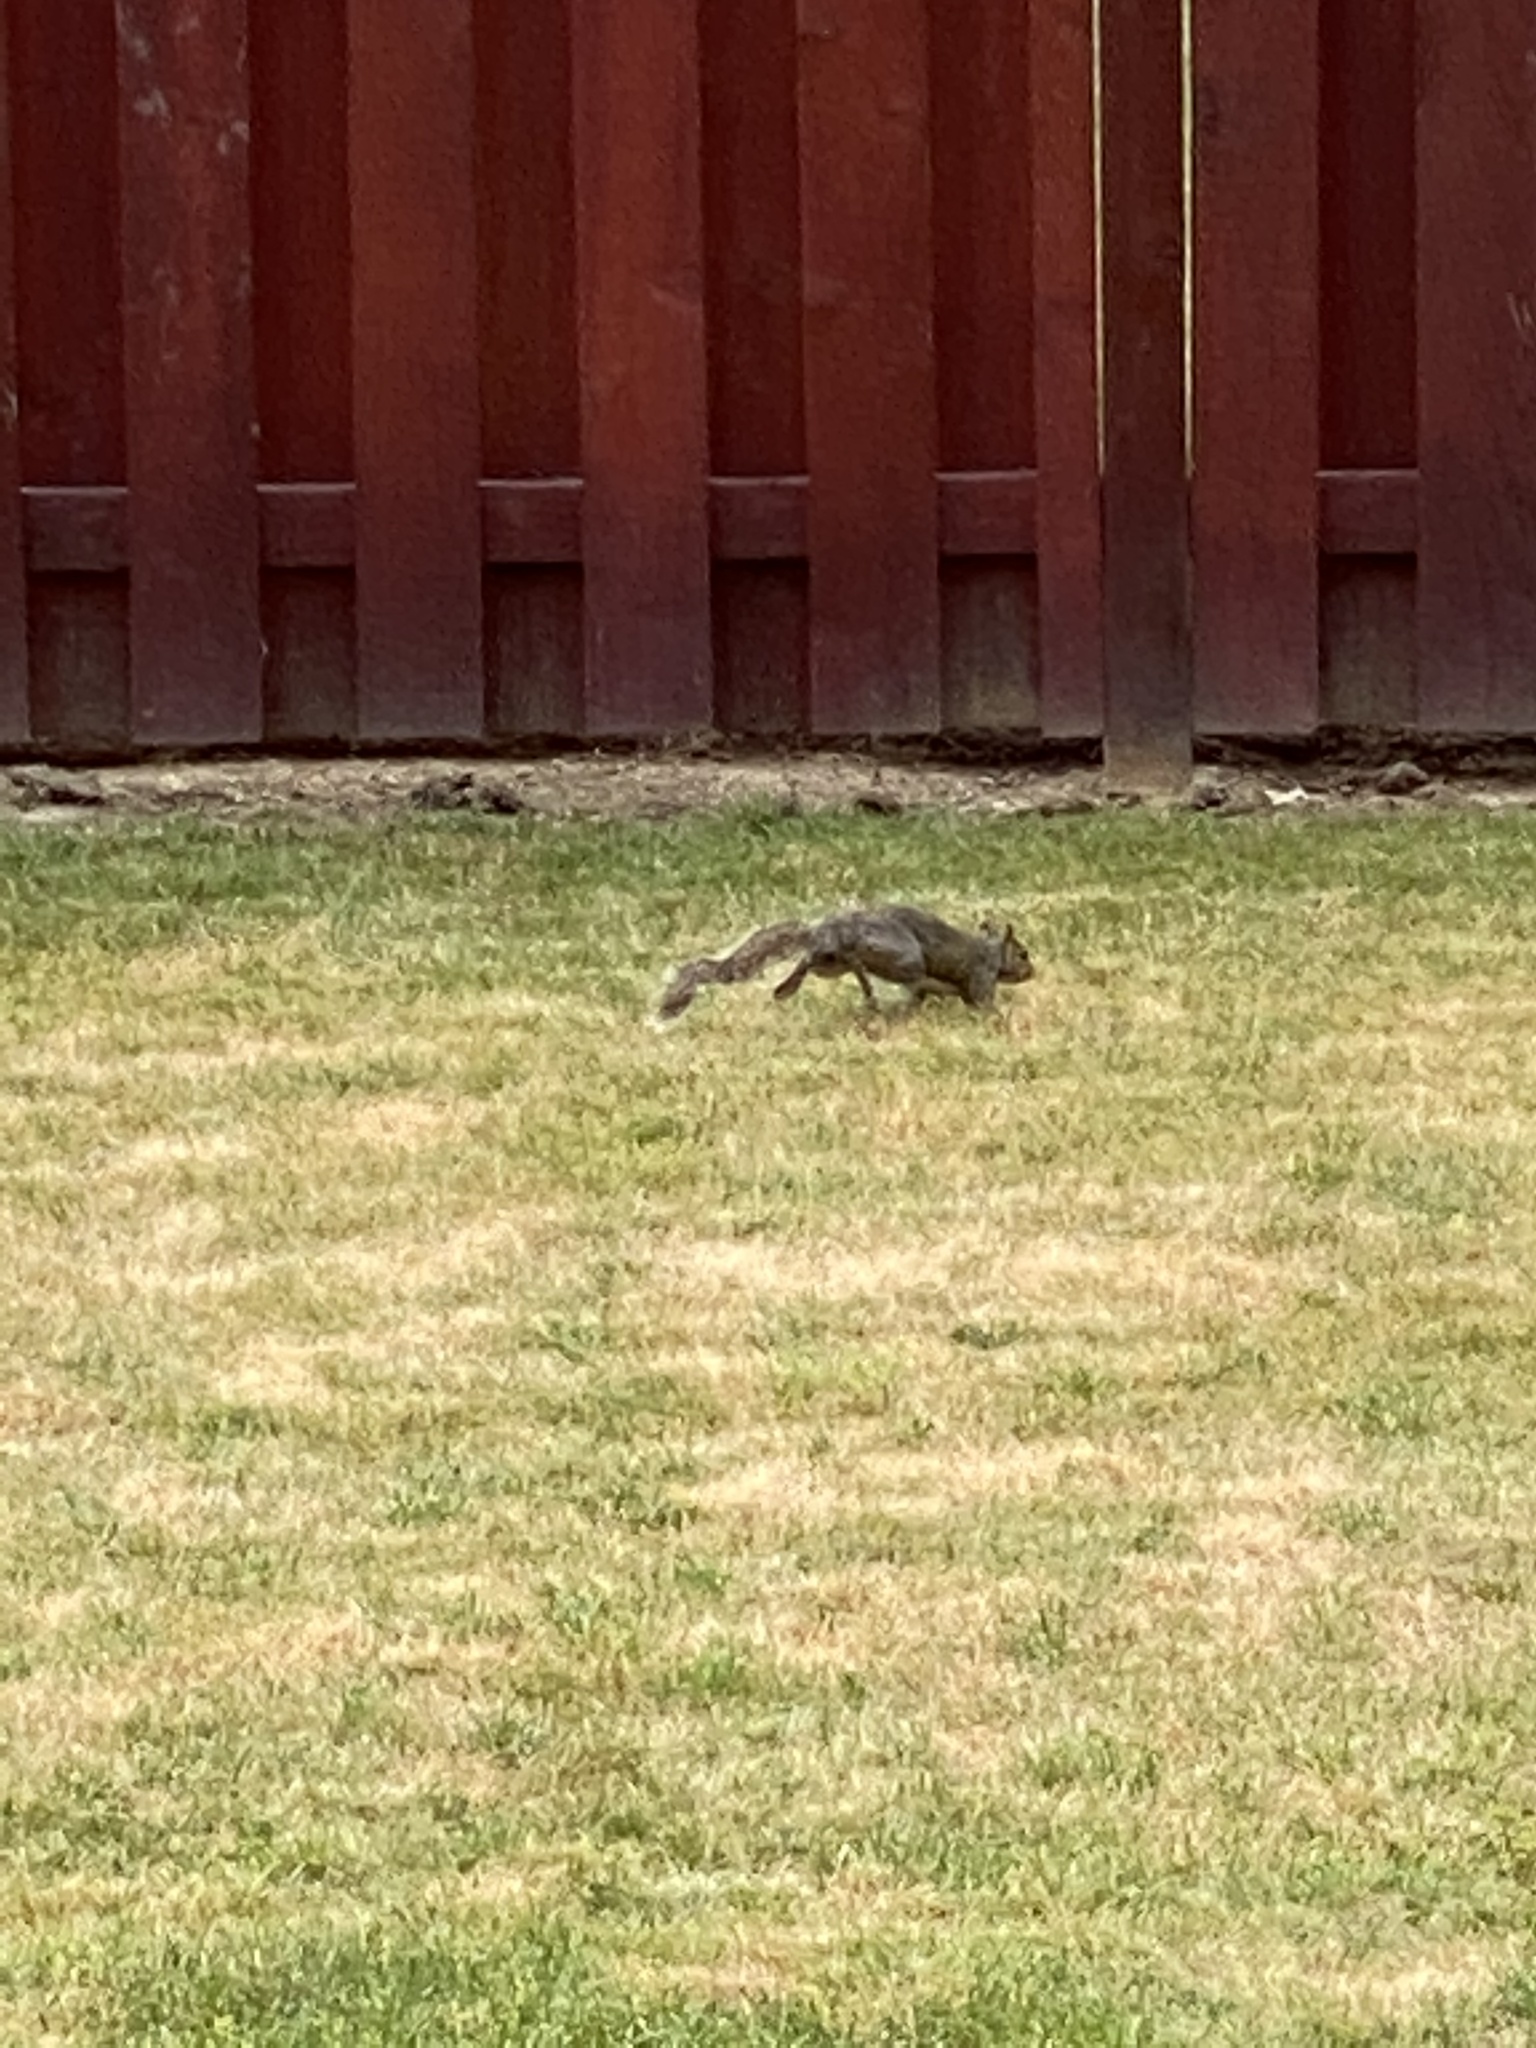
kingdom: Animalia
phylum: Chordata
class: Mammalia
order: Rodentia
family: Sciuridae
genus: Sciurus
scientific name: Sciurus carolinensis
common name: Eastern gray squirrel
